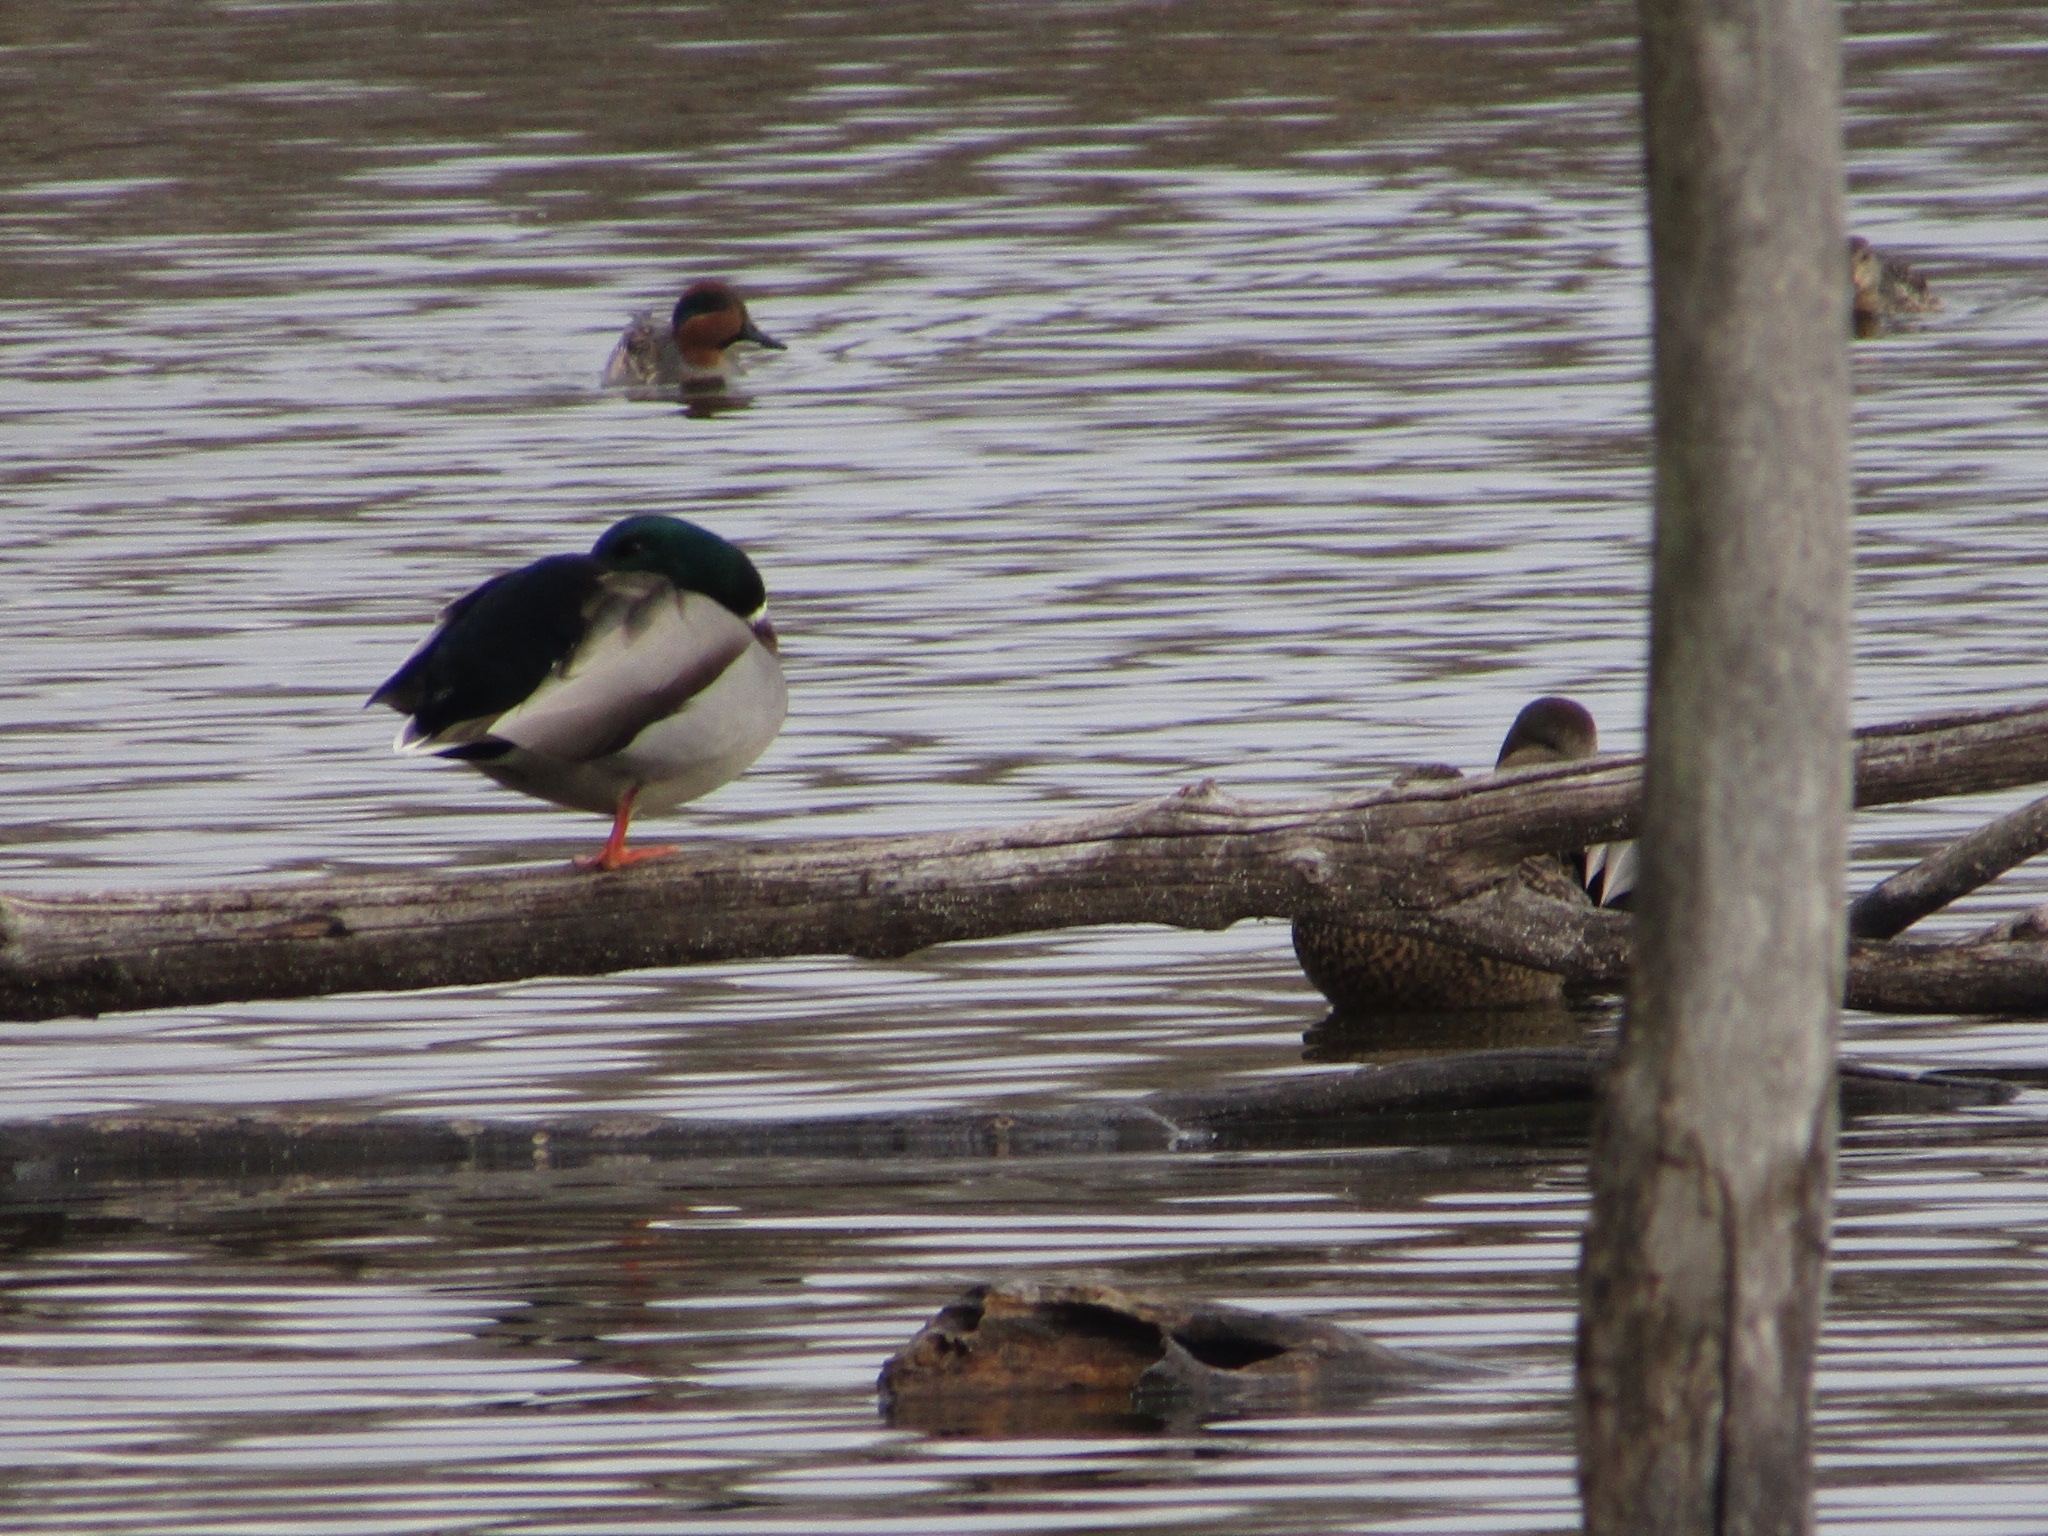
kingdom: Animalia
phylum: Chordata
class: Aves
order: Anseriformes
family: Anatidae
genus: Anas
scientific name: Anas platyrhynchos
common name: Mallard
